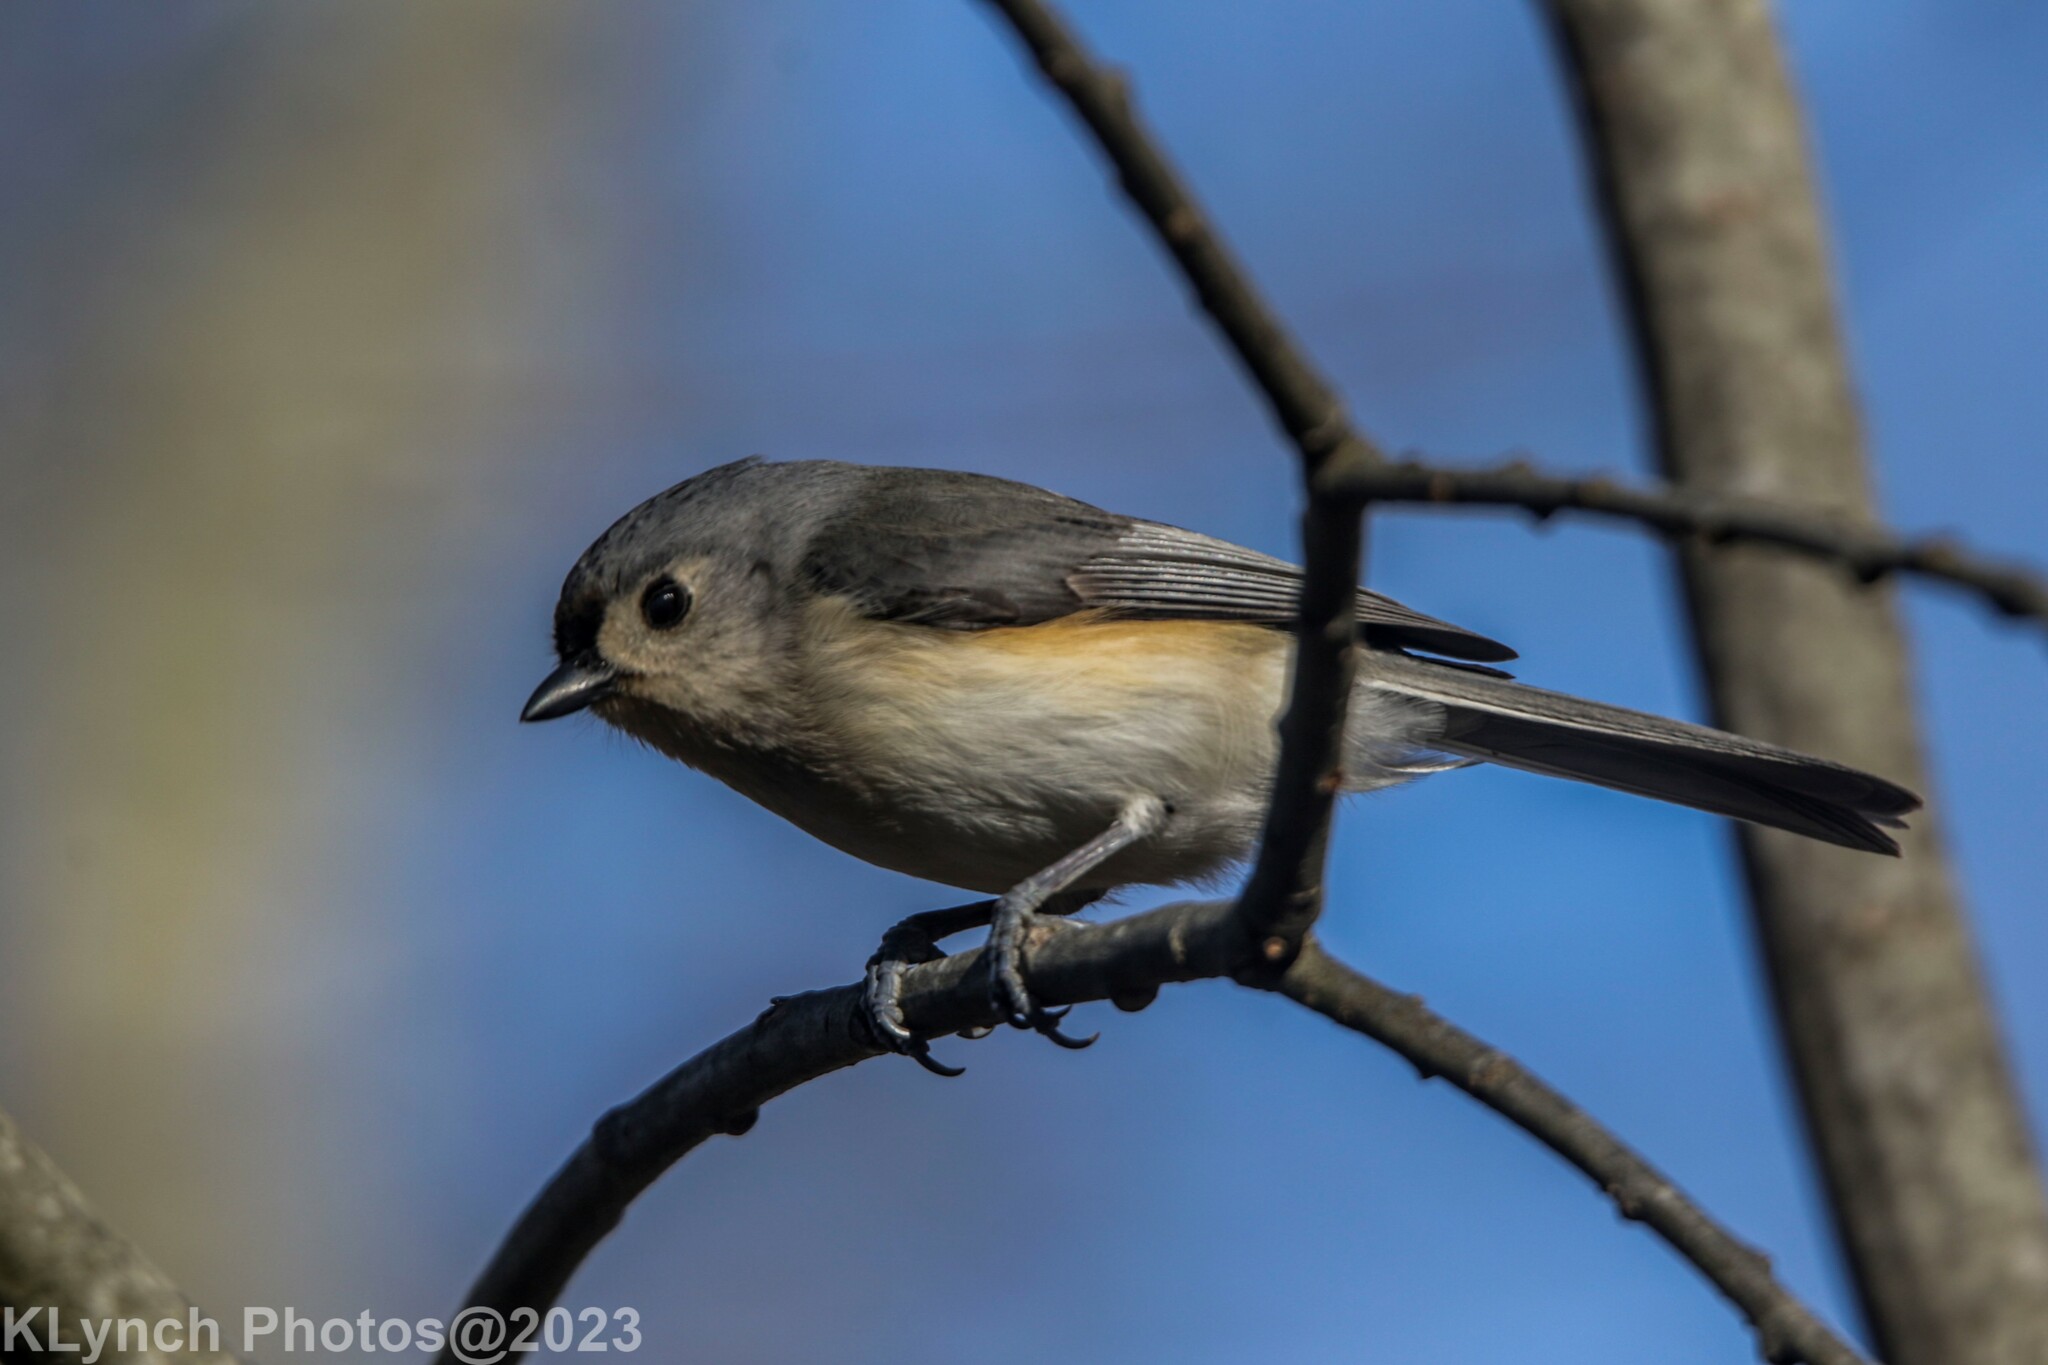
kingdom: Animalia
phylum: Chordata
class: Aves
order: Passeriformes
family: Paridae
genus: Baeolophus
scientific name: Baeolophus bicolor
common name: Tufted titmouse
